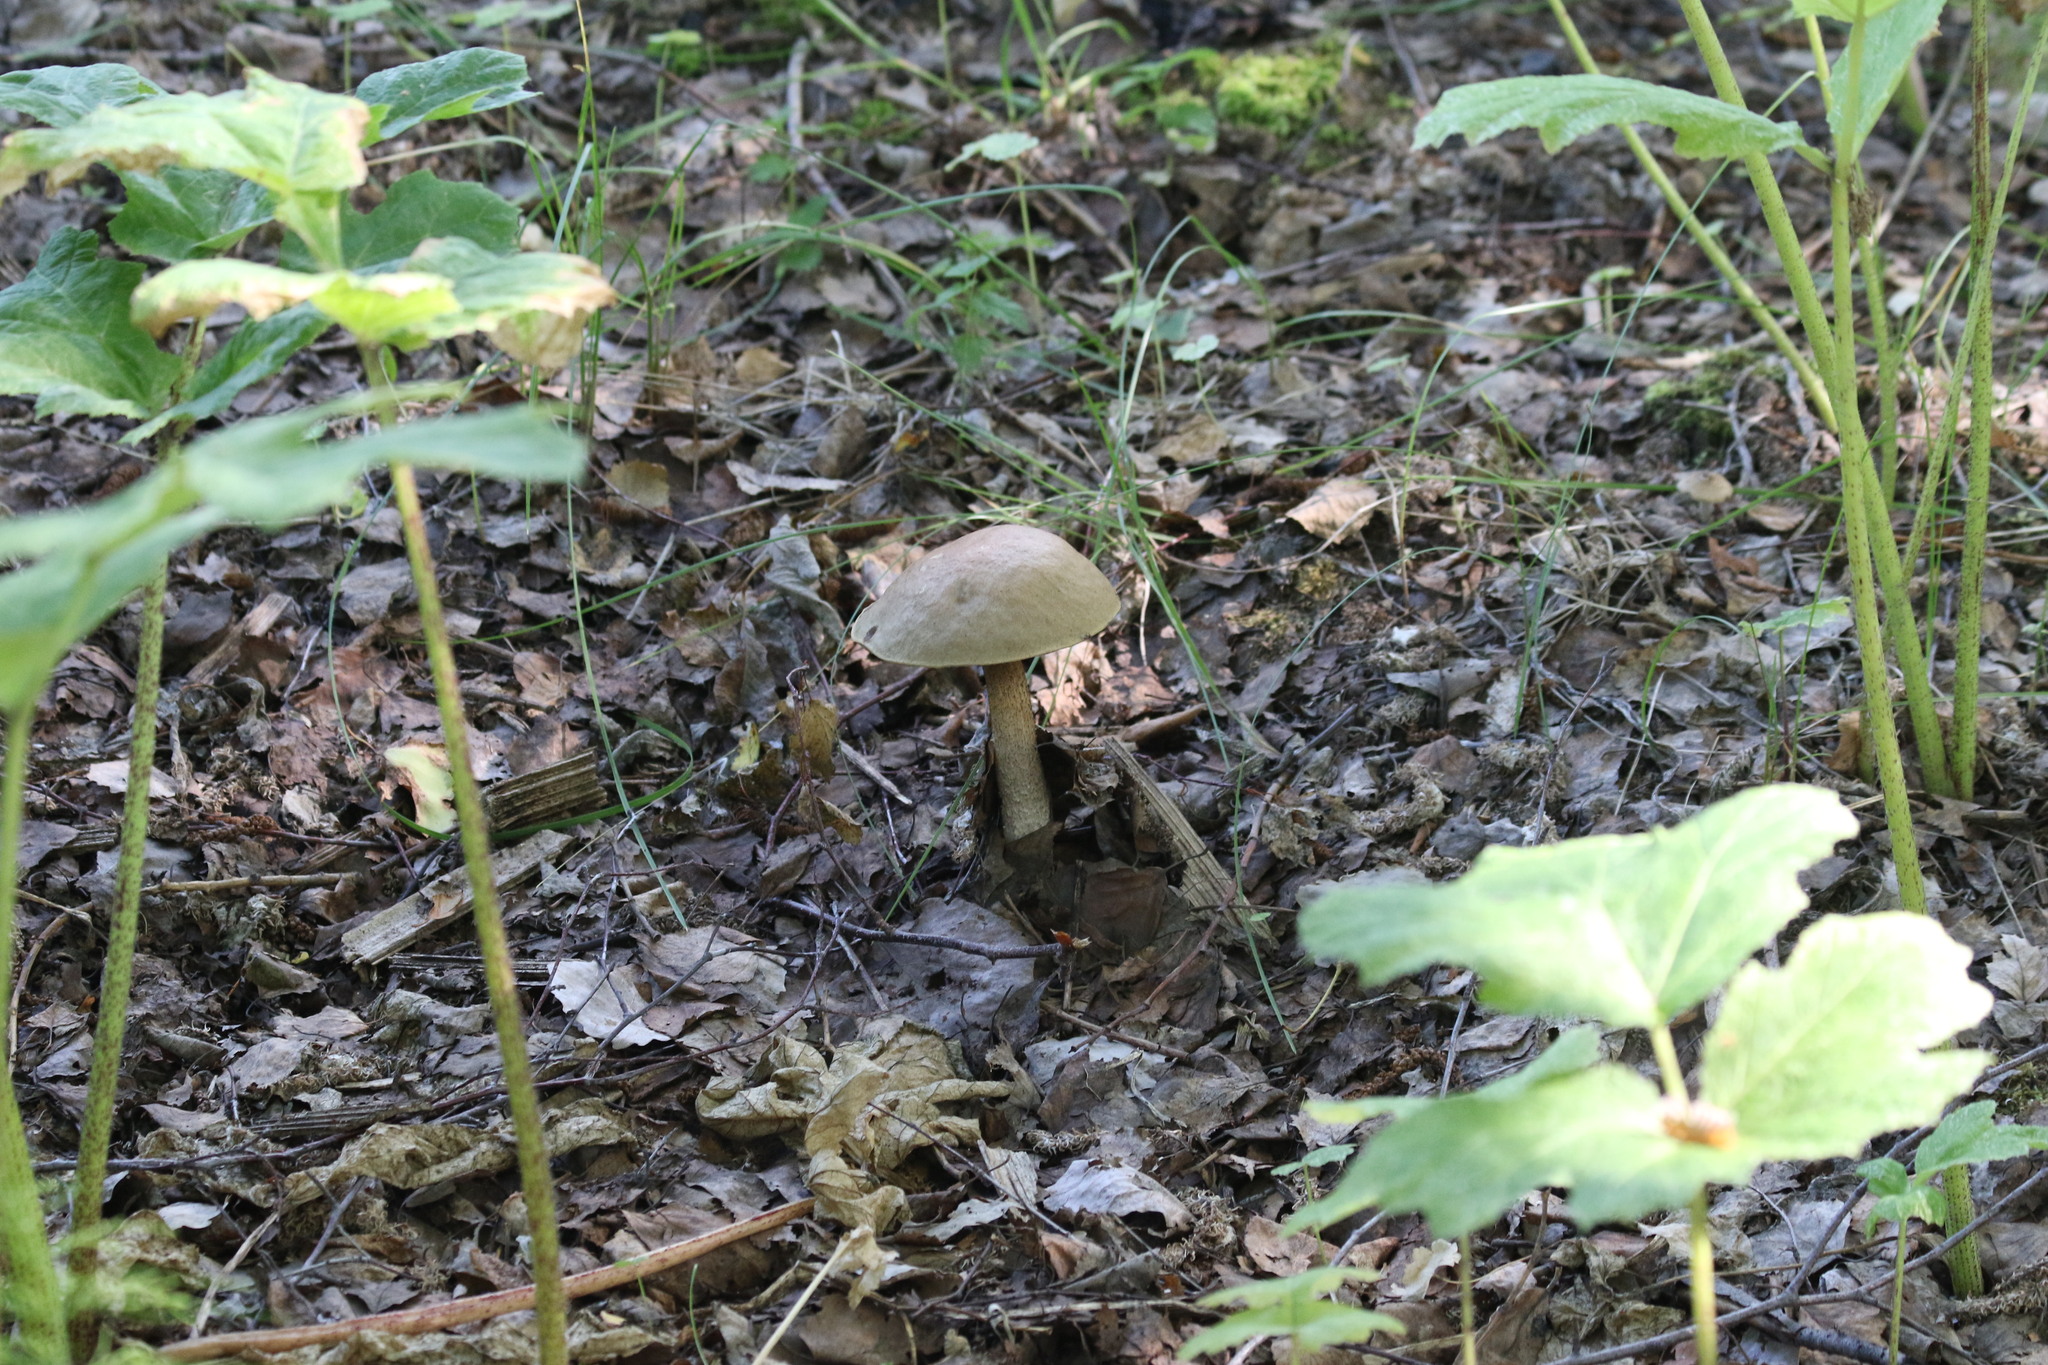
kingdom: Fungi
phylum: Basidiomycota
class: Agaricomycetes
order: Boletales
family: Boletaceae
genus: Leccinum
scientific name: Leccinum scabrum
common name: Blushing bolete
